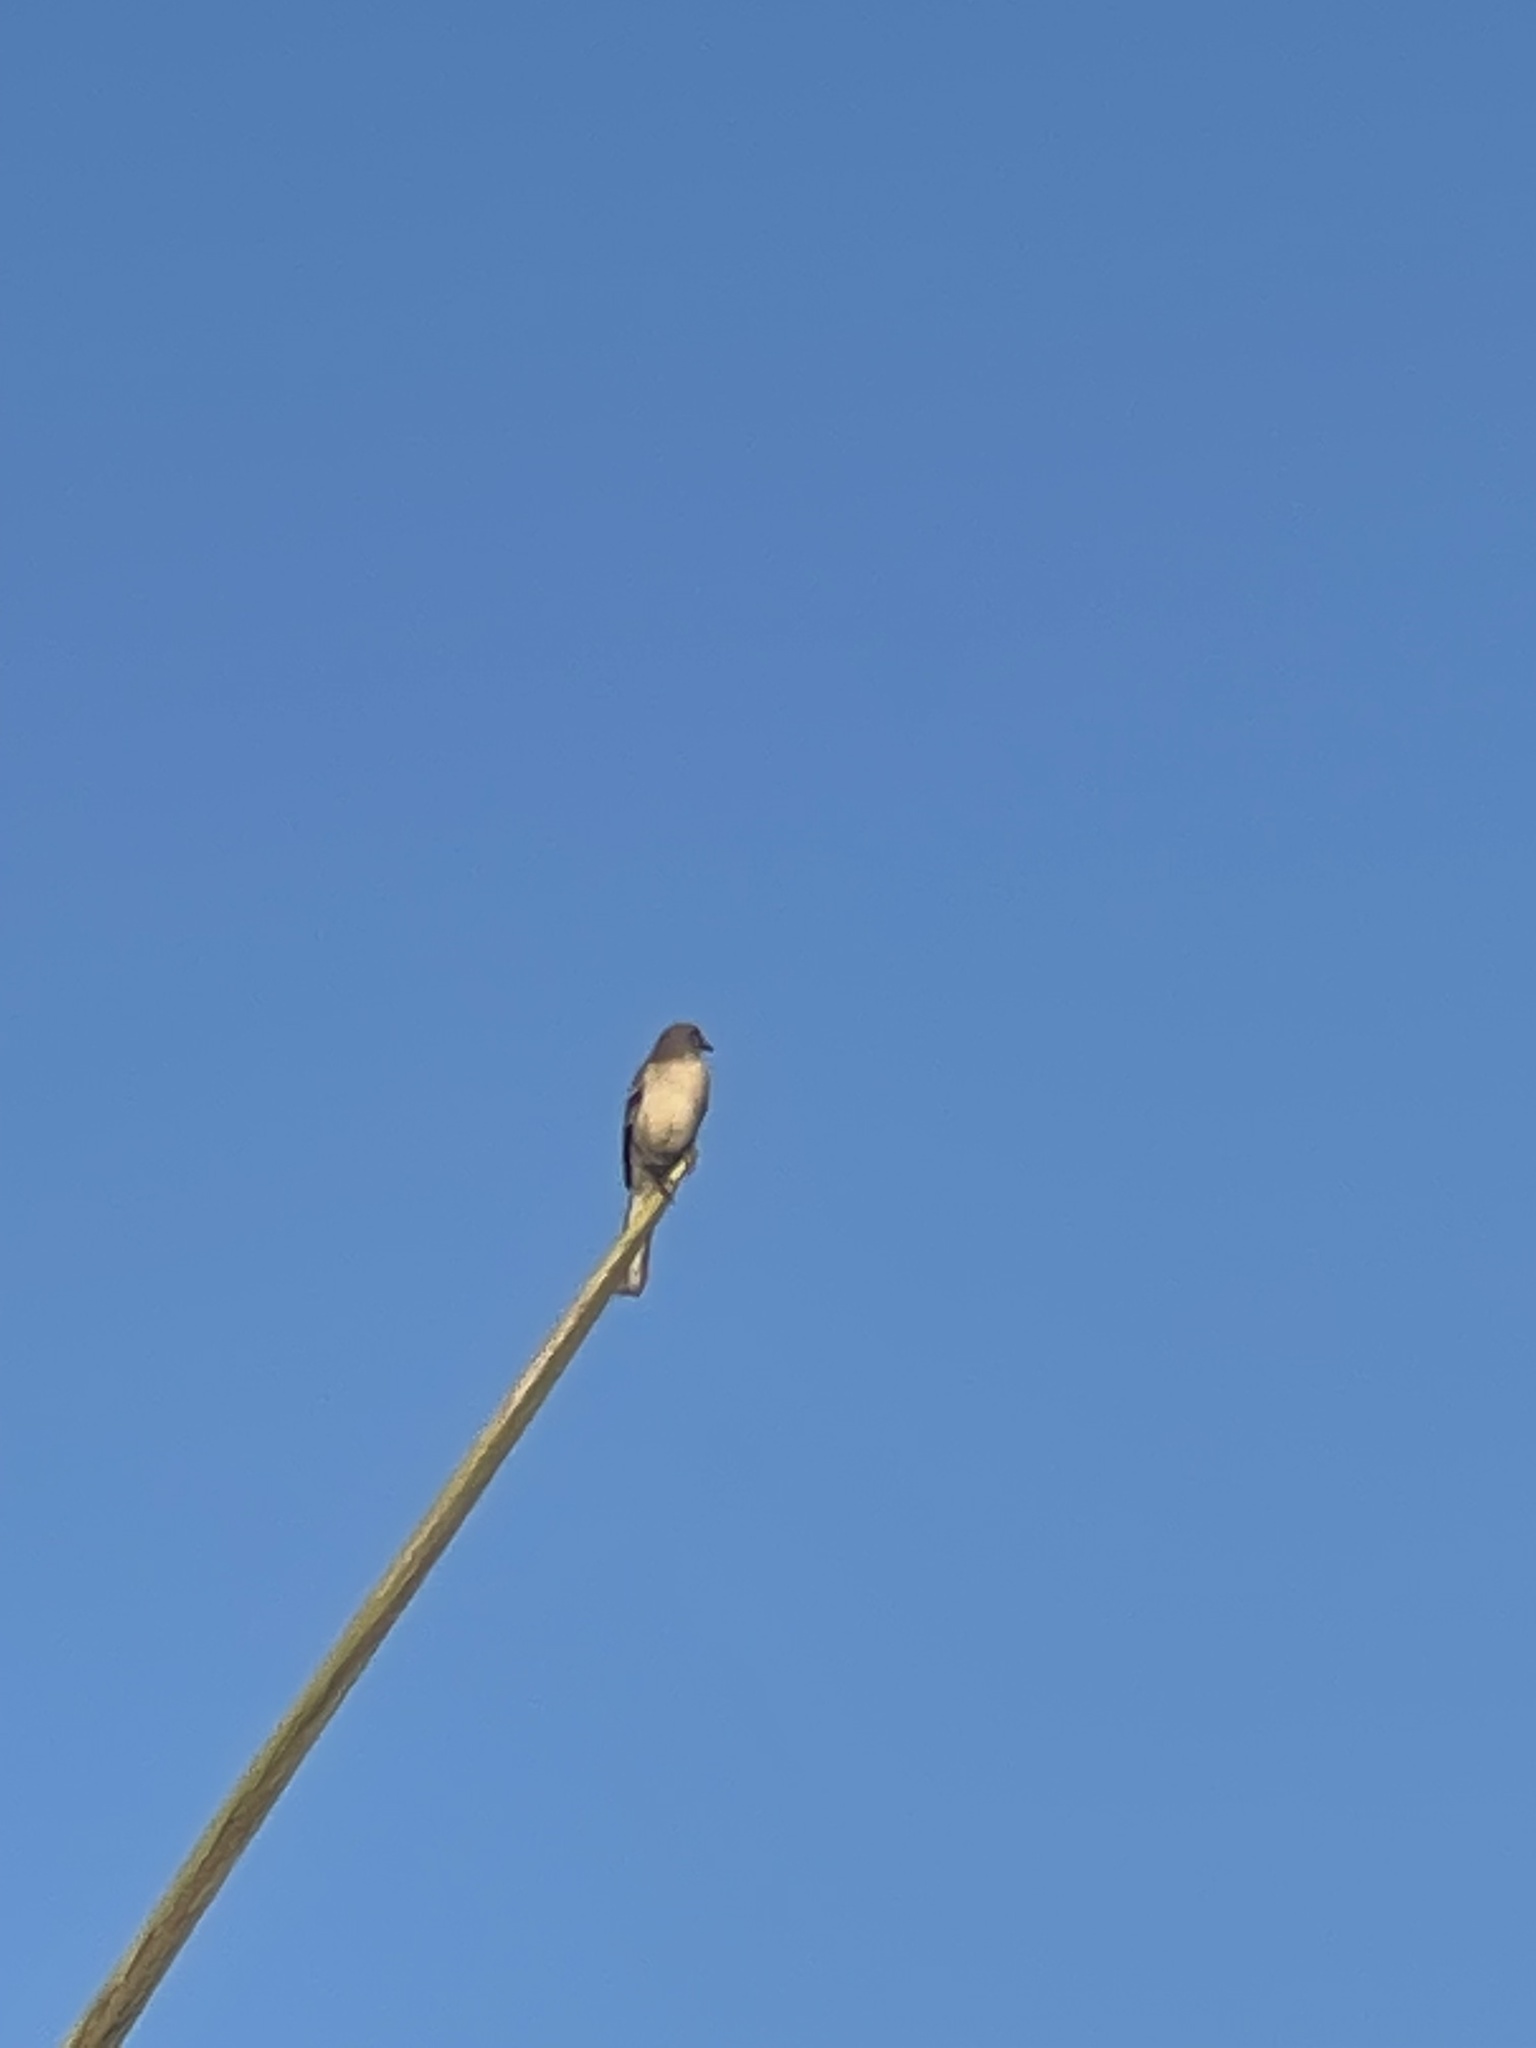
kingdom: Animalia
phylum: Chordata
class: Aves
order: Passeriformes
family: Mimidae
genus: Mimus
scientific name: Mimus polyglottos
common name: Northern mockingbird
